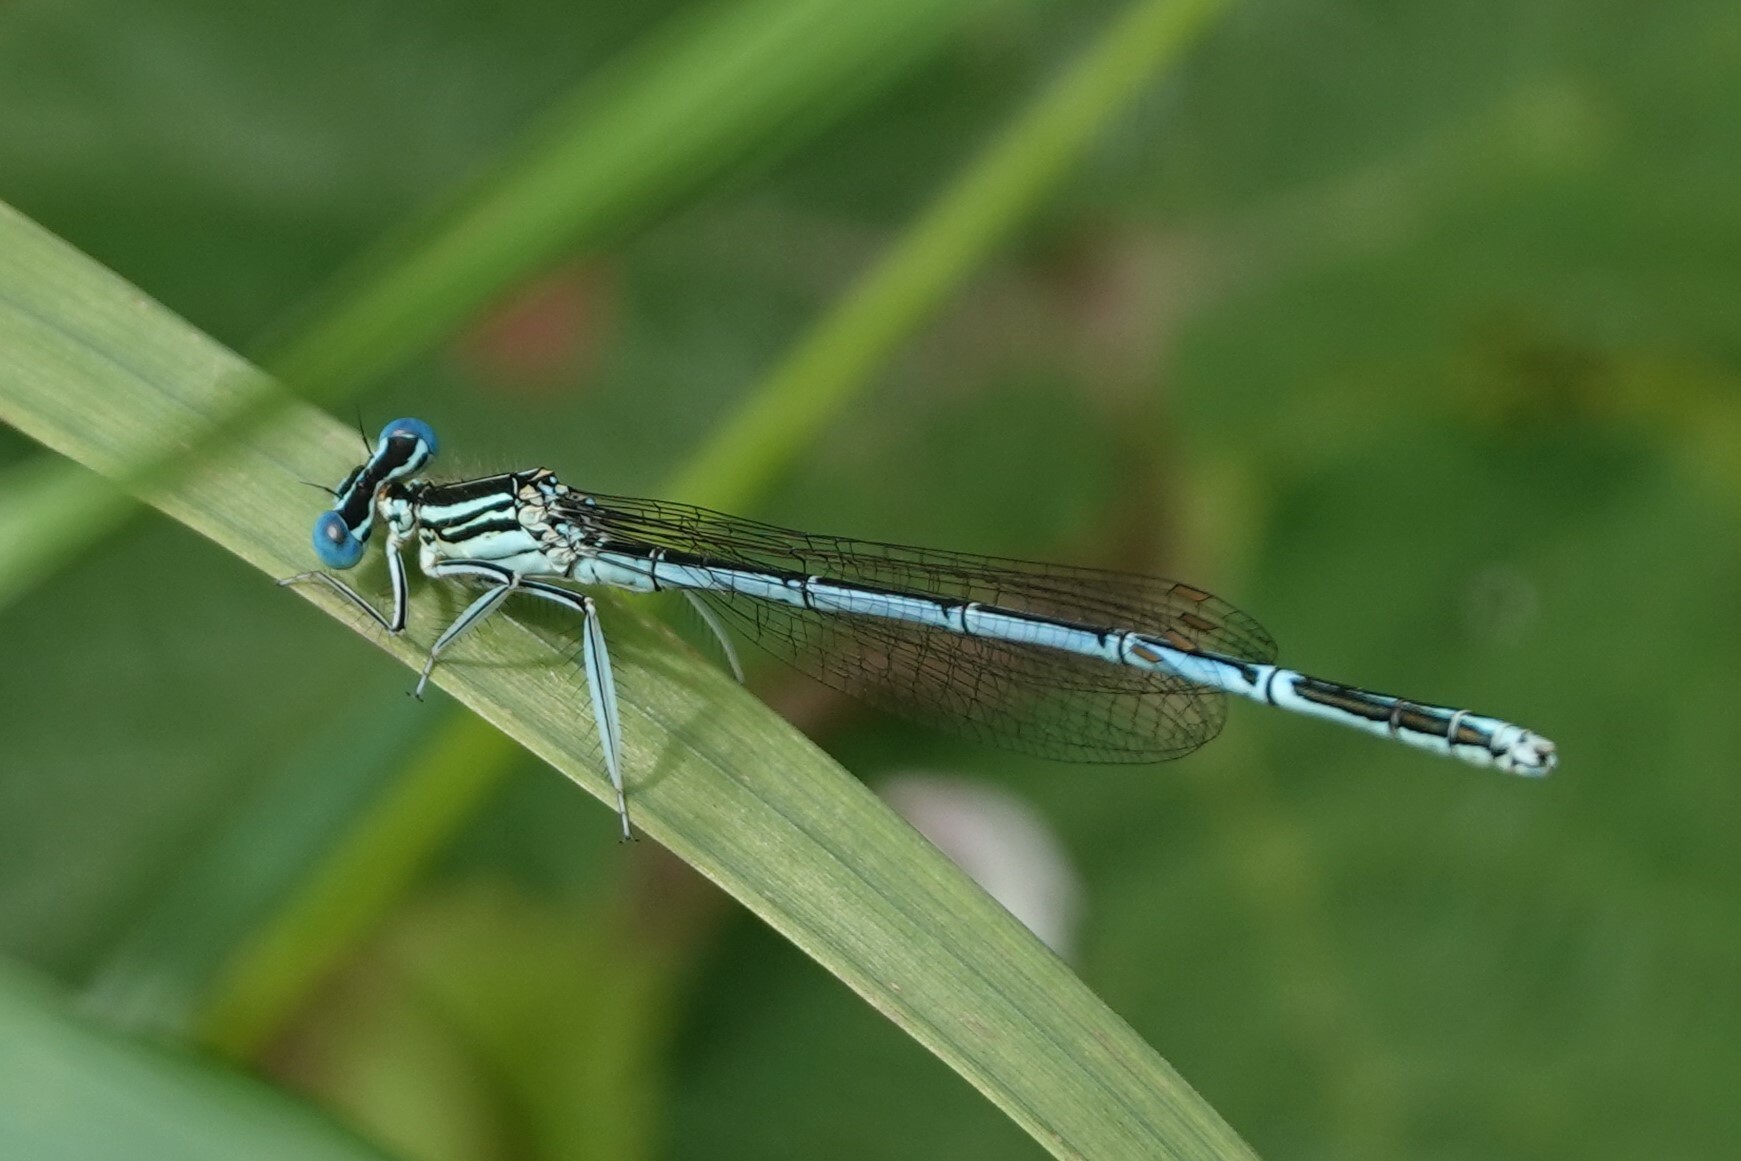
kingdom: Animalia
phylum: Arthropoda
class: Insecta
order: Odonata
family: Platycnemididae
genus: Platycnemis
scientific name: Platycnemis pennipes
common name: White-legged damselfly
